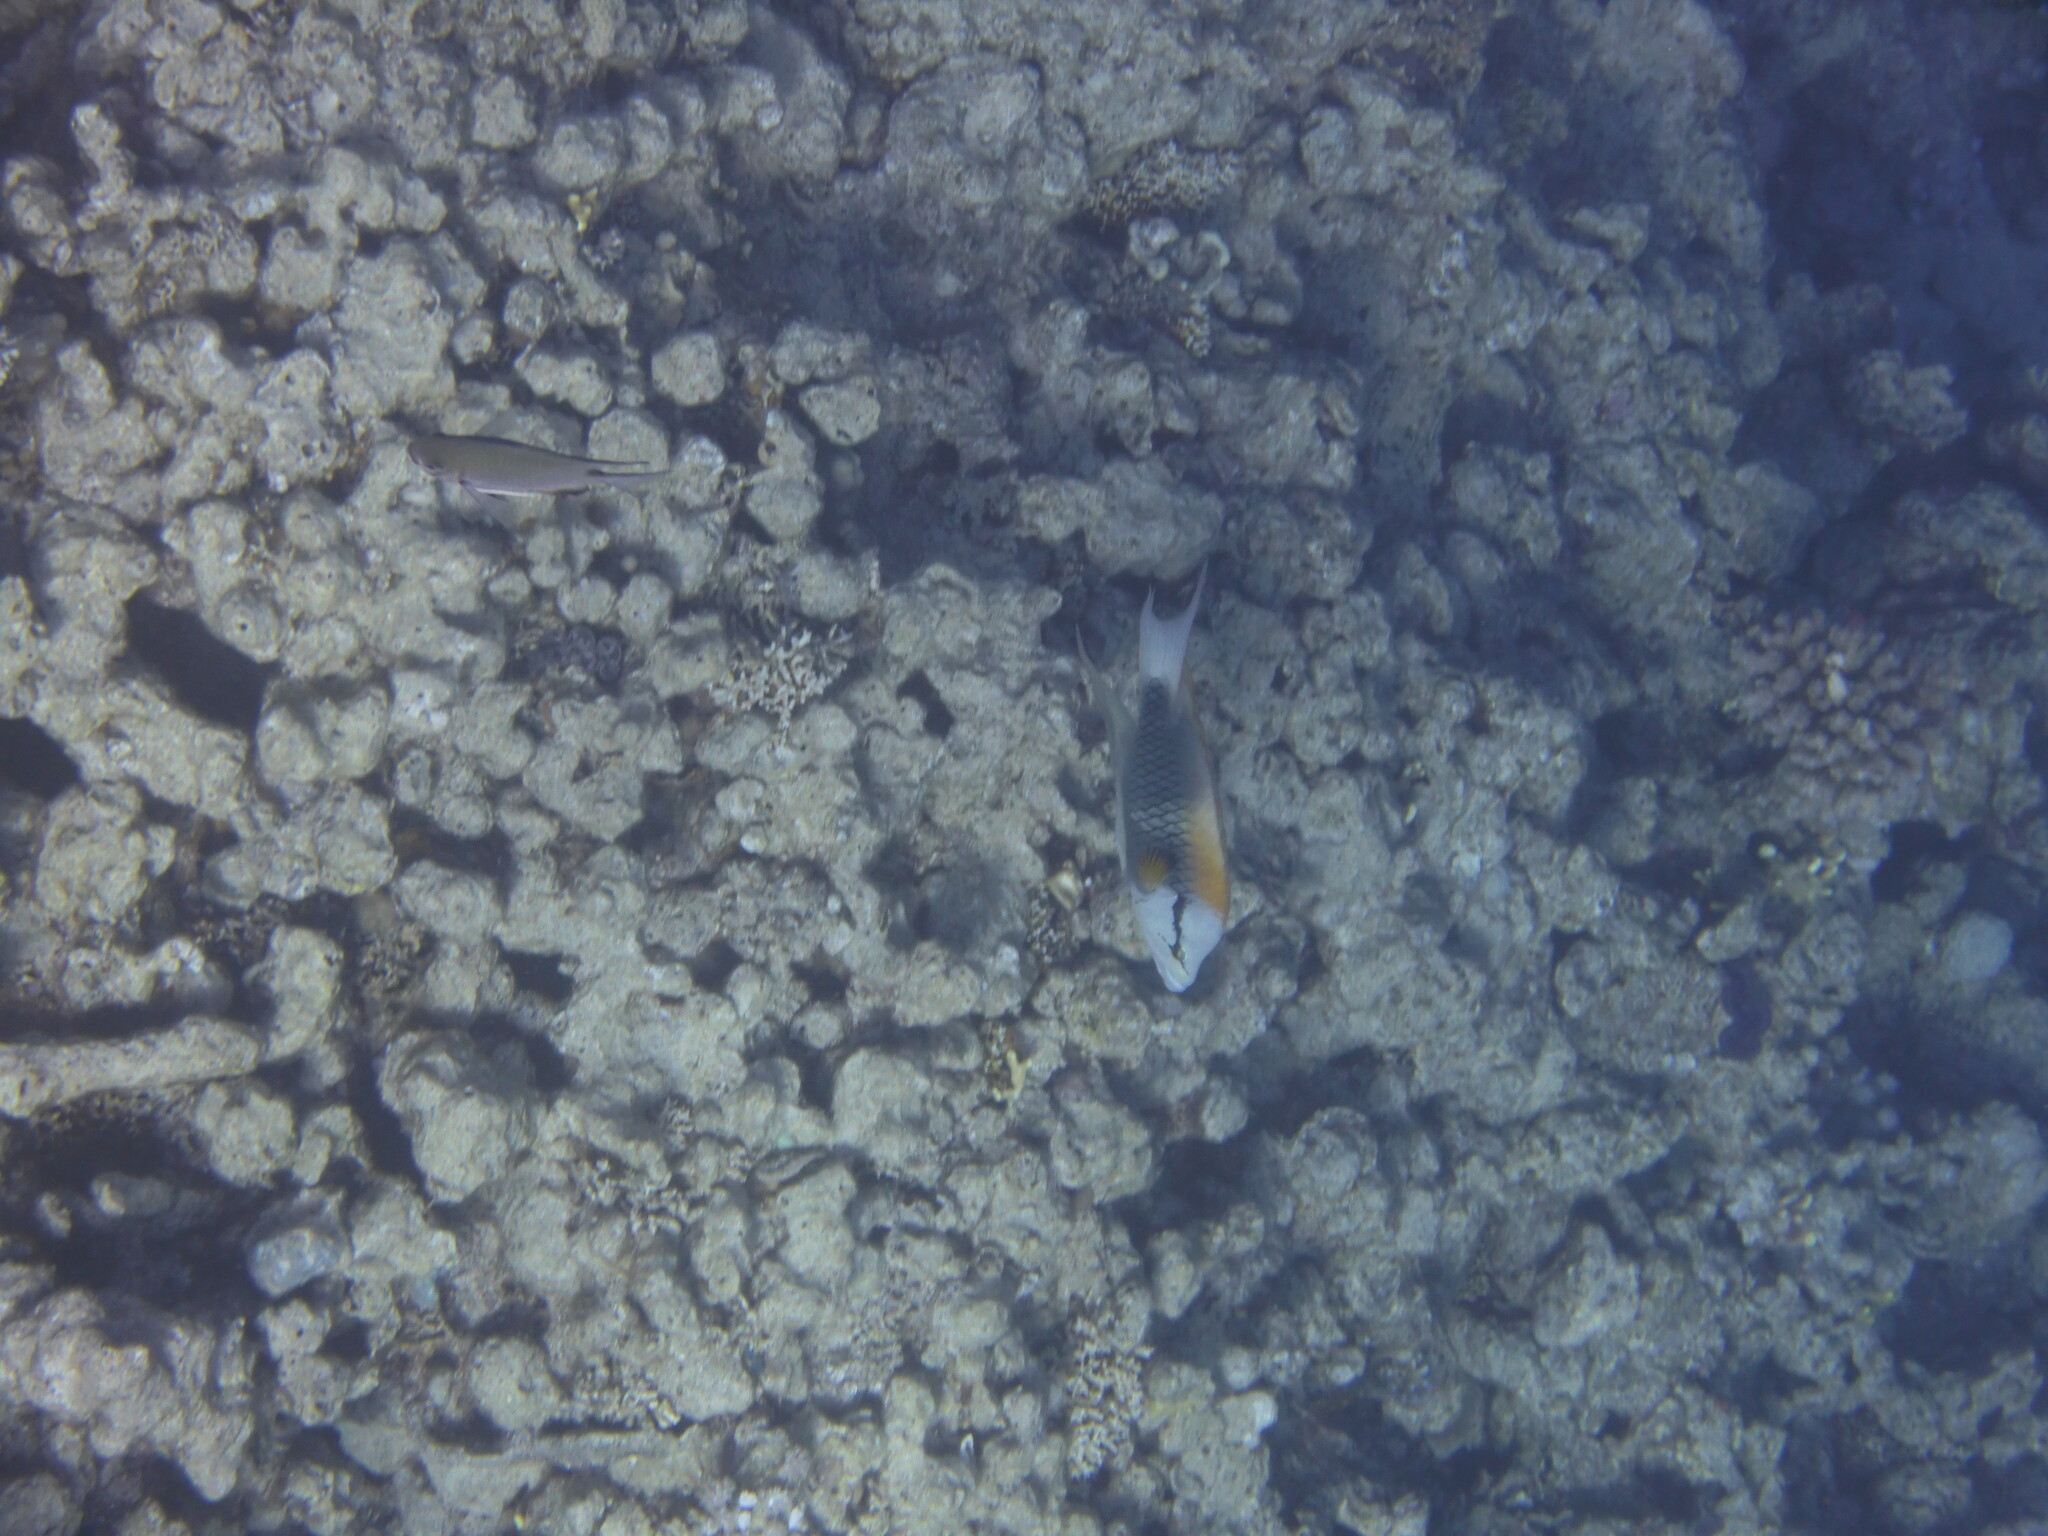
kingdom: Animalia
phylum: Chordata
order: Perciformes
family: Labridae
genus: Epibulus
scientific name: Epibulus insidiator
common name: Slingjaw wrasse
